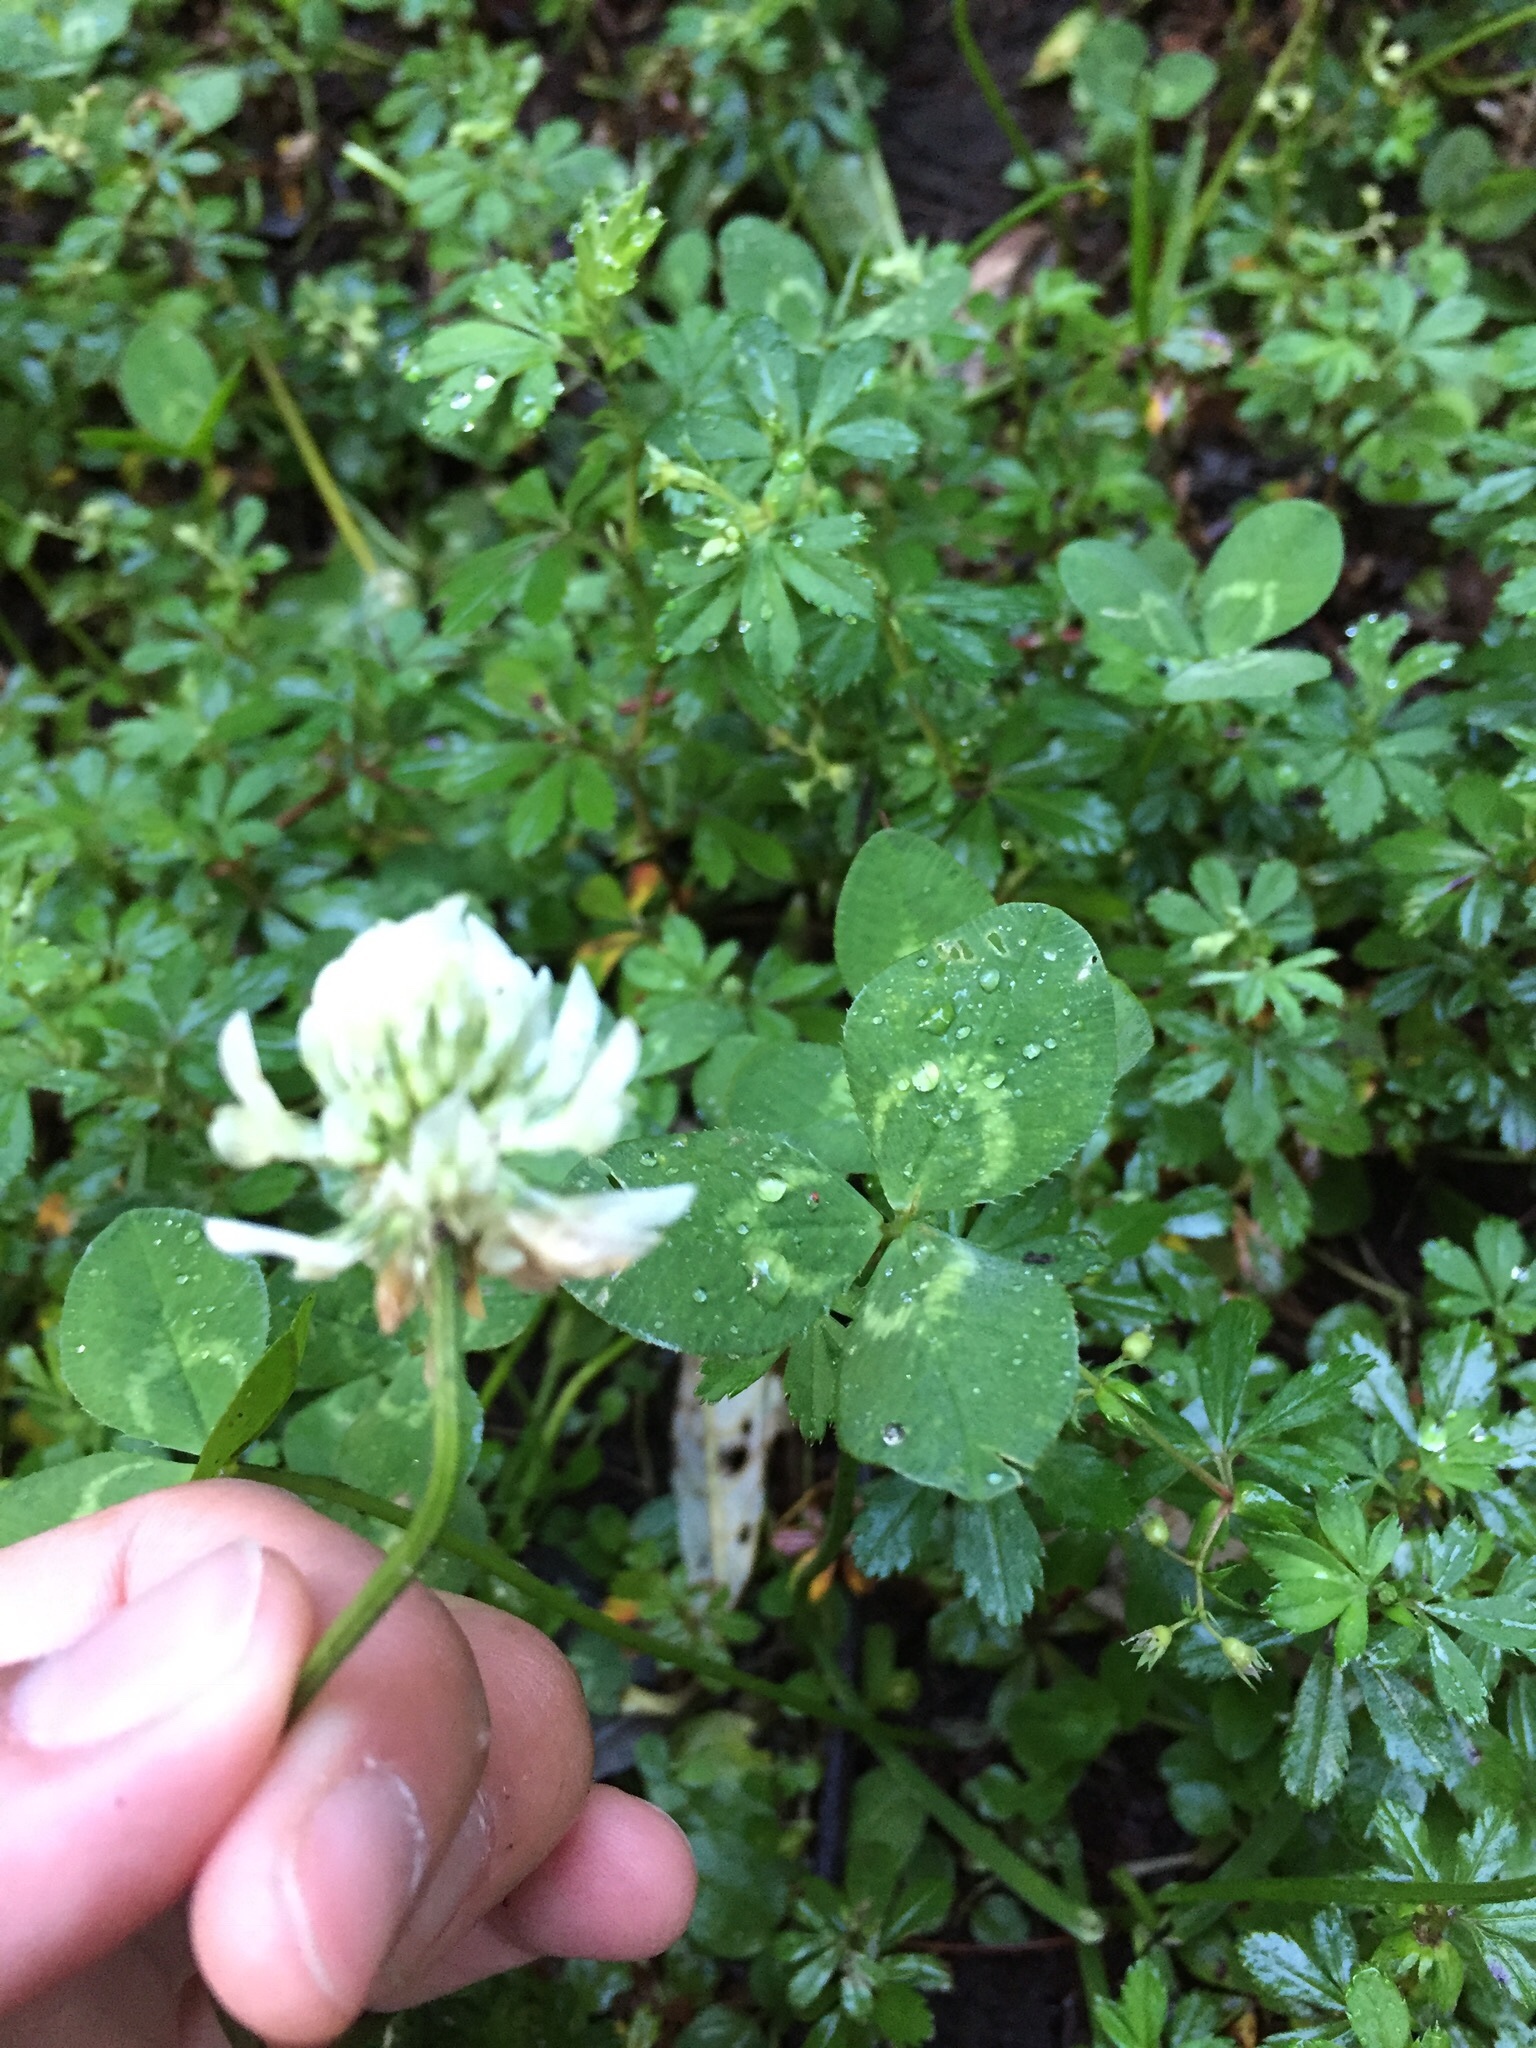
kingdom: Plantae
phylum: Tracheophyta
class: Magnoliopsida
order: Fabales
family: Fabaceae
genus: Trifolium
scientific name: Trifolium repens
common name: White clover
